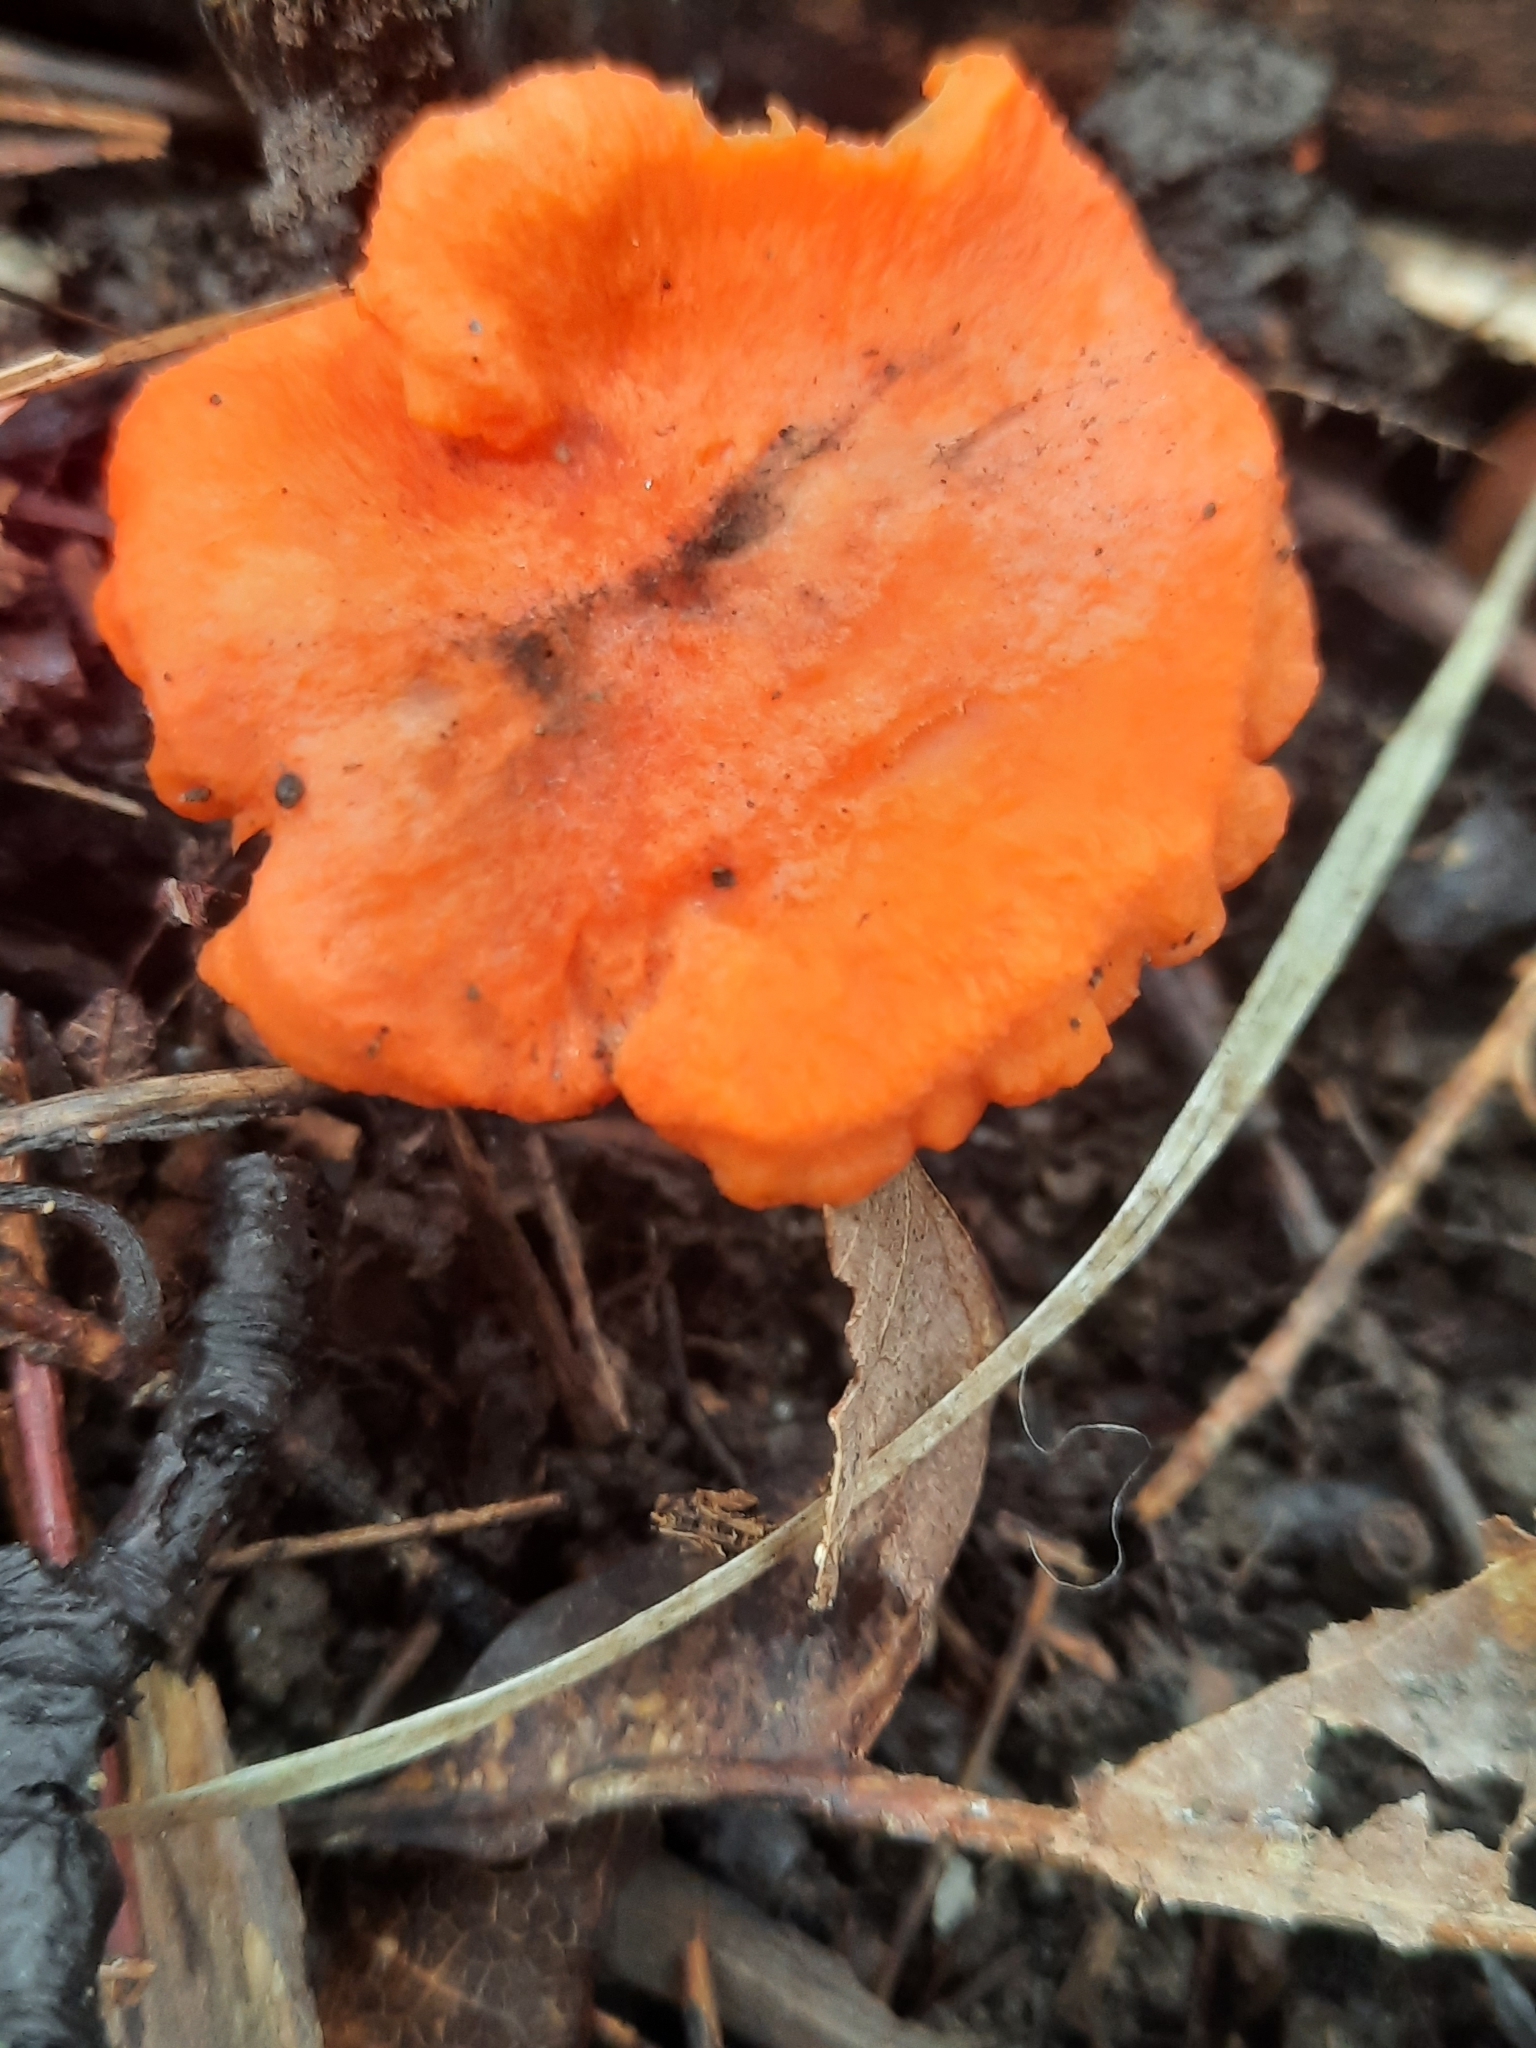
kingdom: Fungi
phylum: Basidiomycota
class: Agaricomycetes
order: Cantharellales
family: Hydnaceae
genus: Cantharellus
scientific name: Cantharellus cinnabarinus
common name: Cinnabar chanterelle
